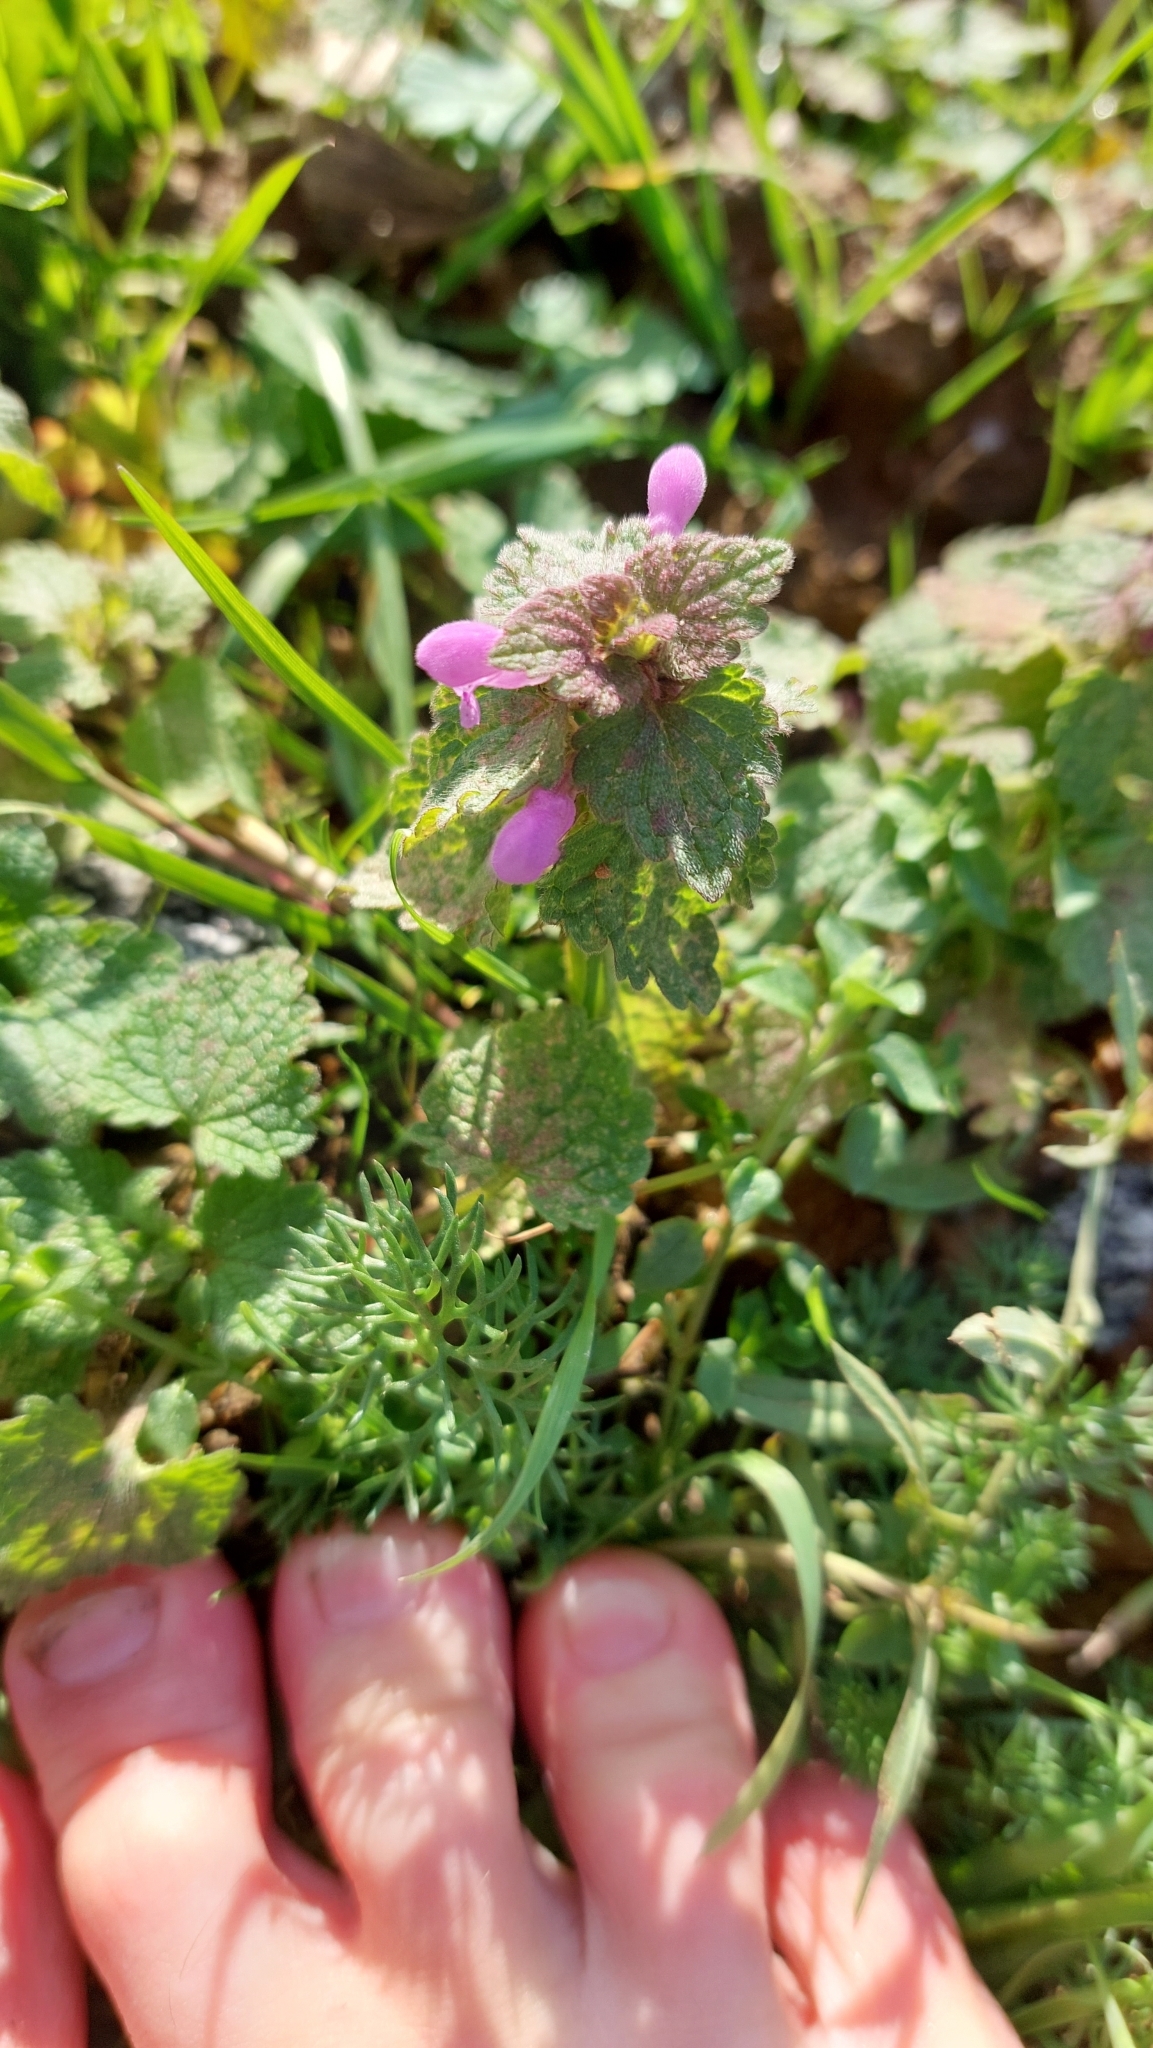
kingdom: Plantae
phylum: Tracheophyta
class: Magnoliopsida
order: Lamiales
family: Lamiaceae
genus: Lamium
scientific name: Lamium purpureum
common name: Red dead-nettle
